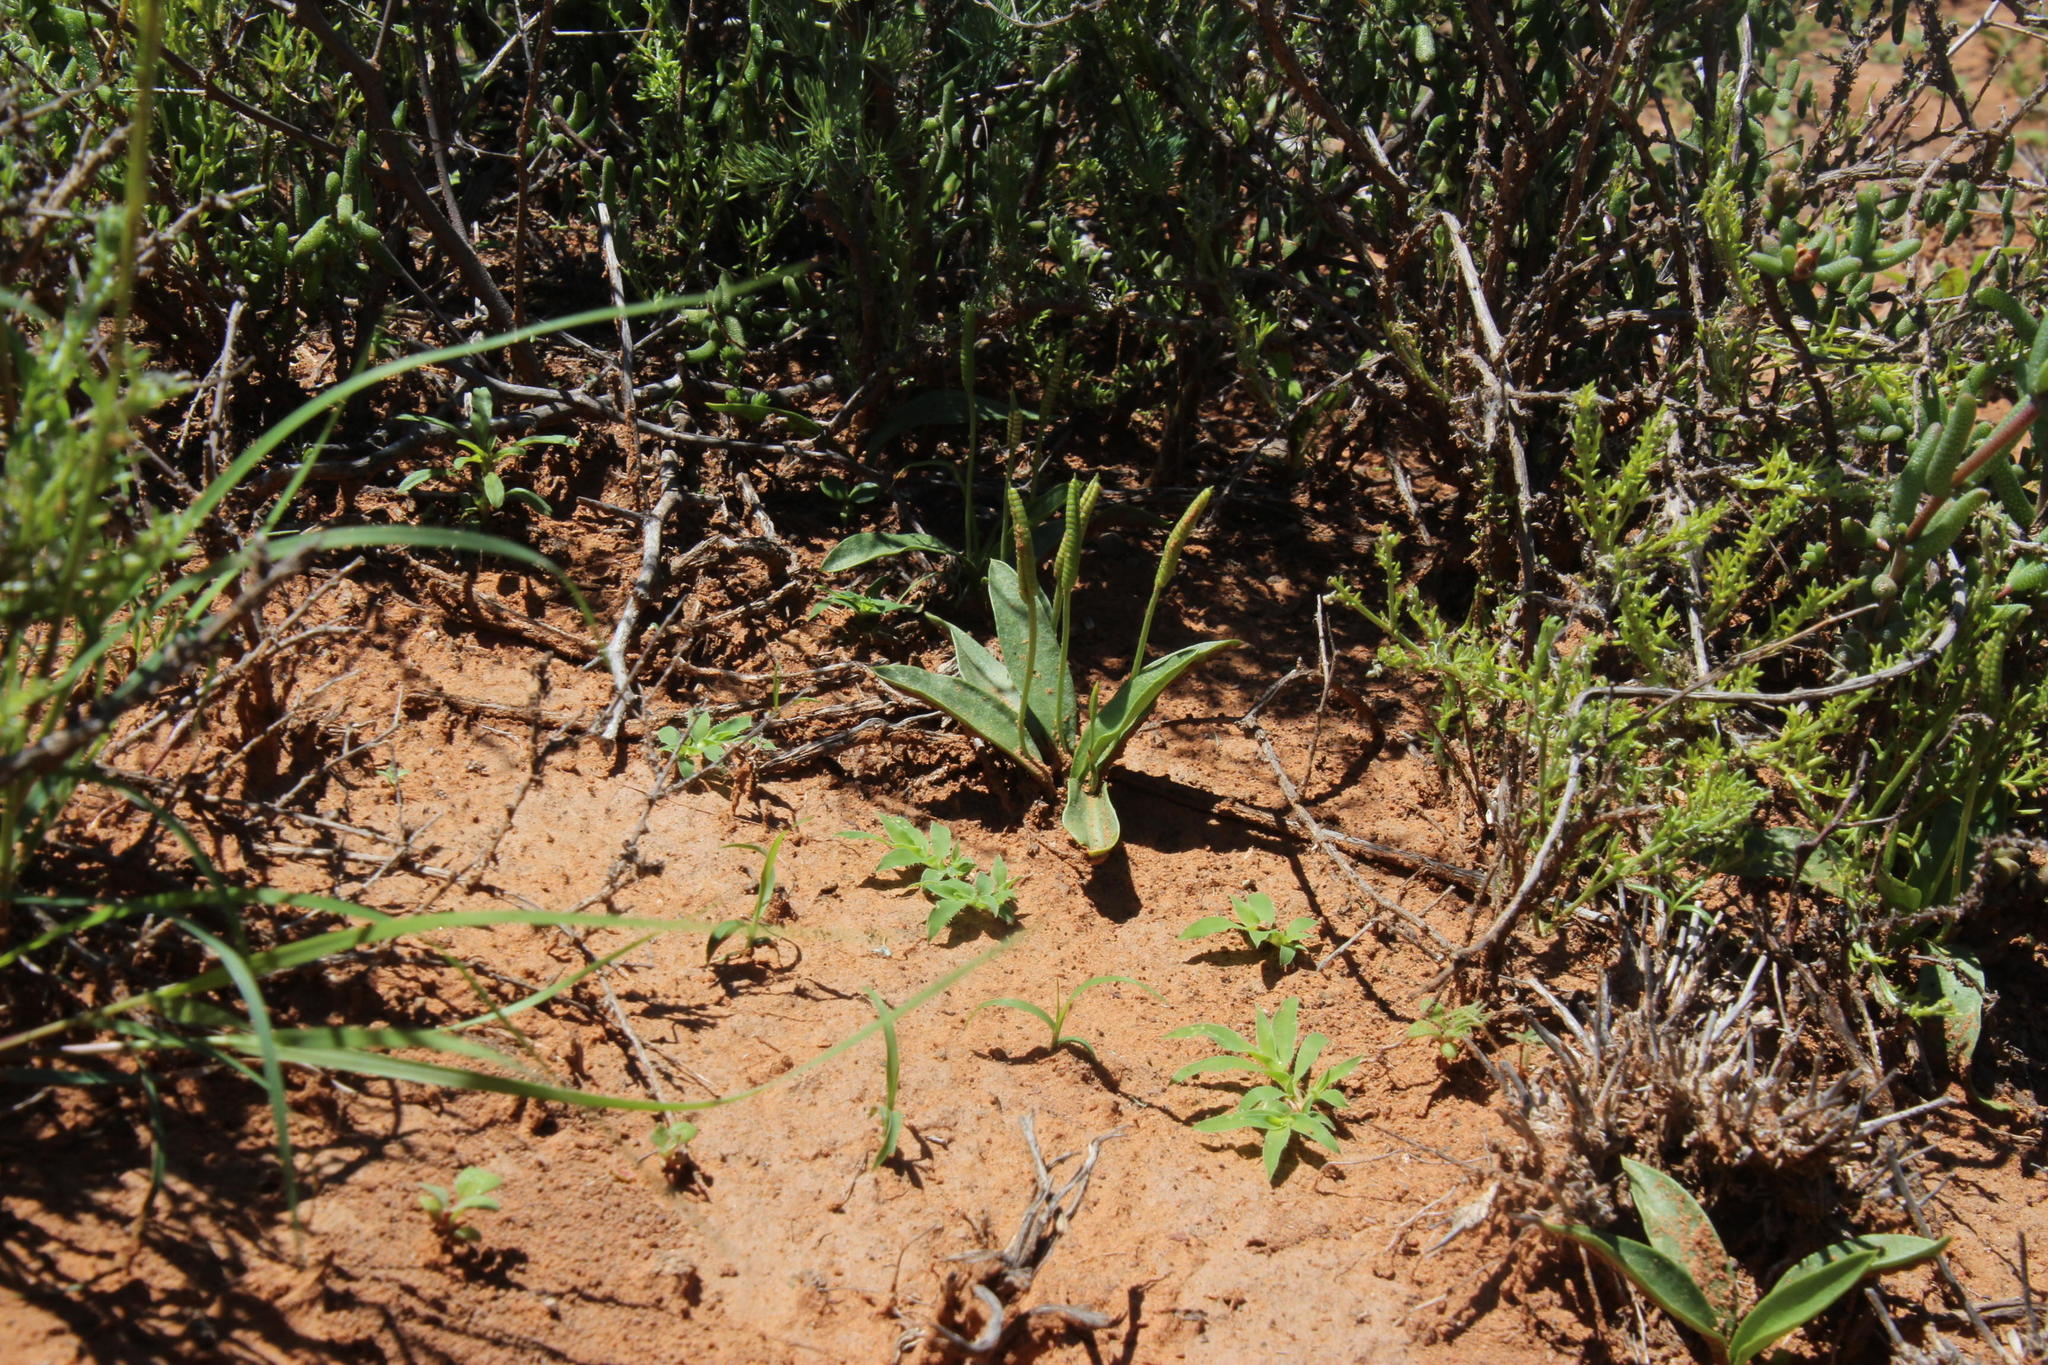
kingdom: Plantae
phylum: Tracheophyta
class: Polypodiopsida
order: Ophioglossales
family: Ophioglossaceae
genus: Ophioglossum
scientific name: Ophioglossum polyphyllum
